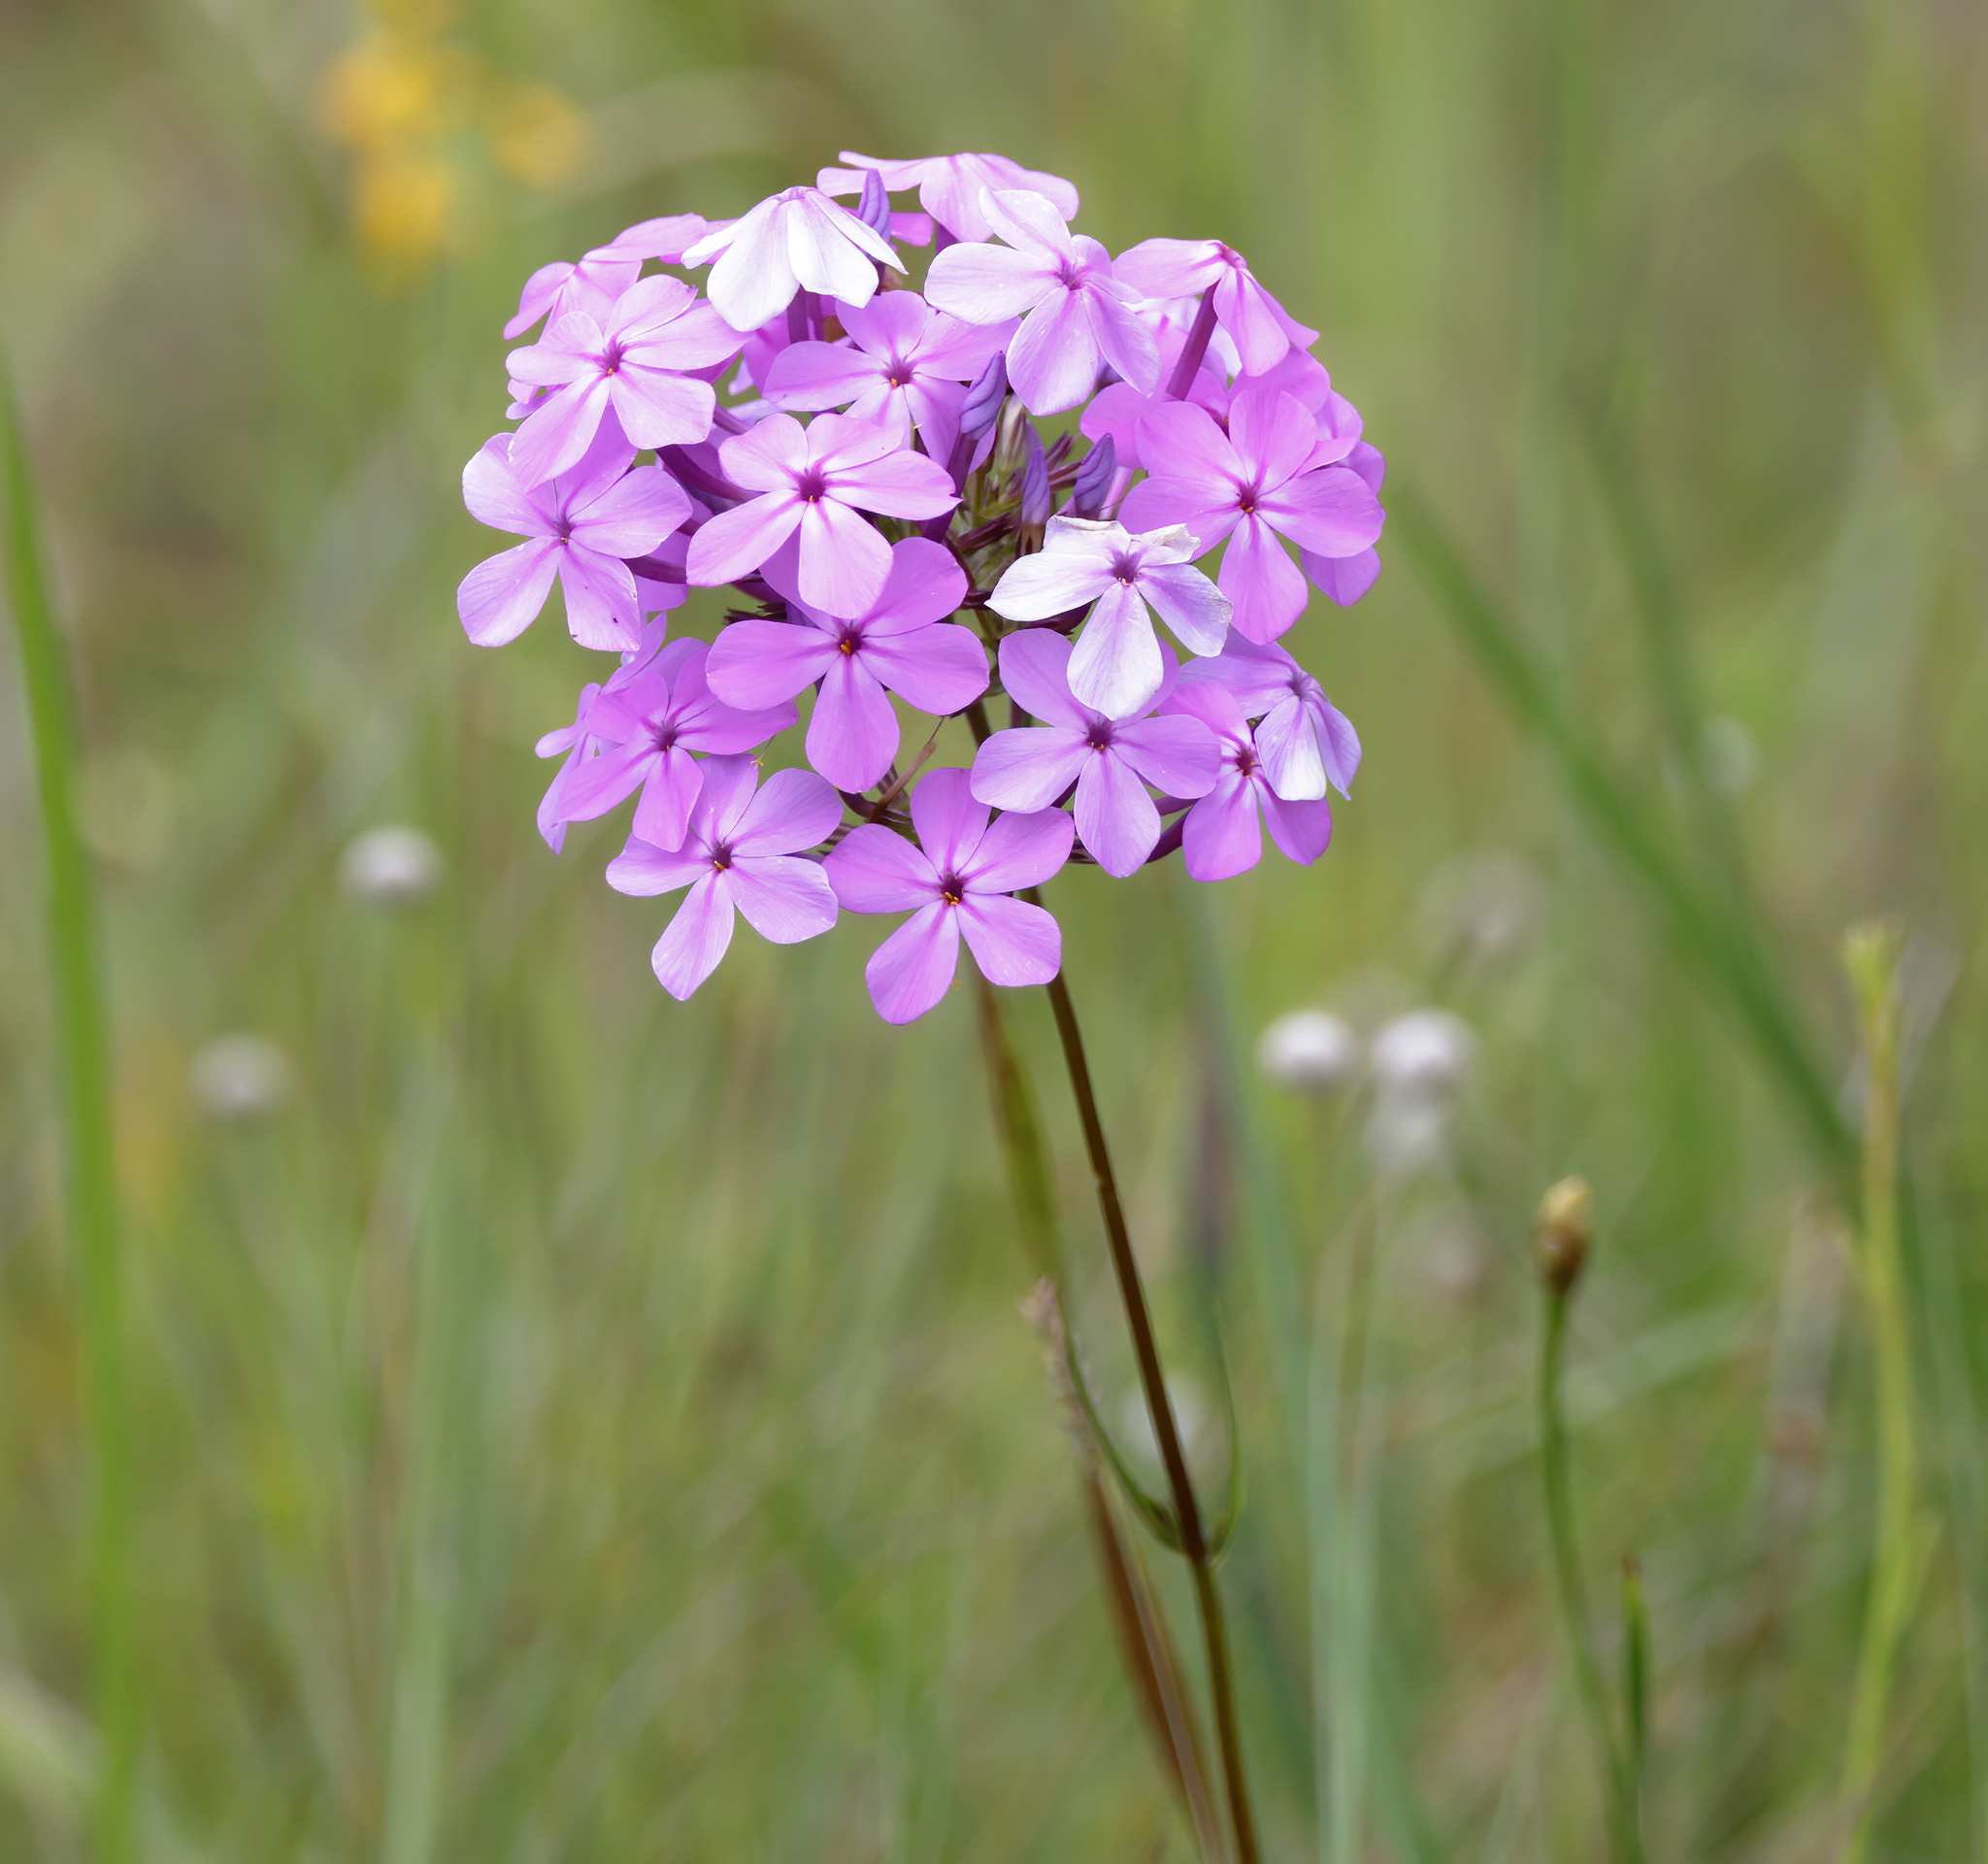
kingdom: Plantae
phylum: Tracheophyta
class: Magnoliopsida
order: Ericales
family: Polemoniaceae
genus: Phlox
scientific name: Phlox carolina
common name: Thick-leaf phlox
